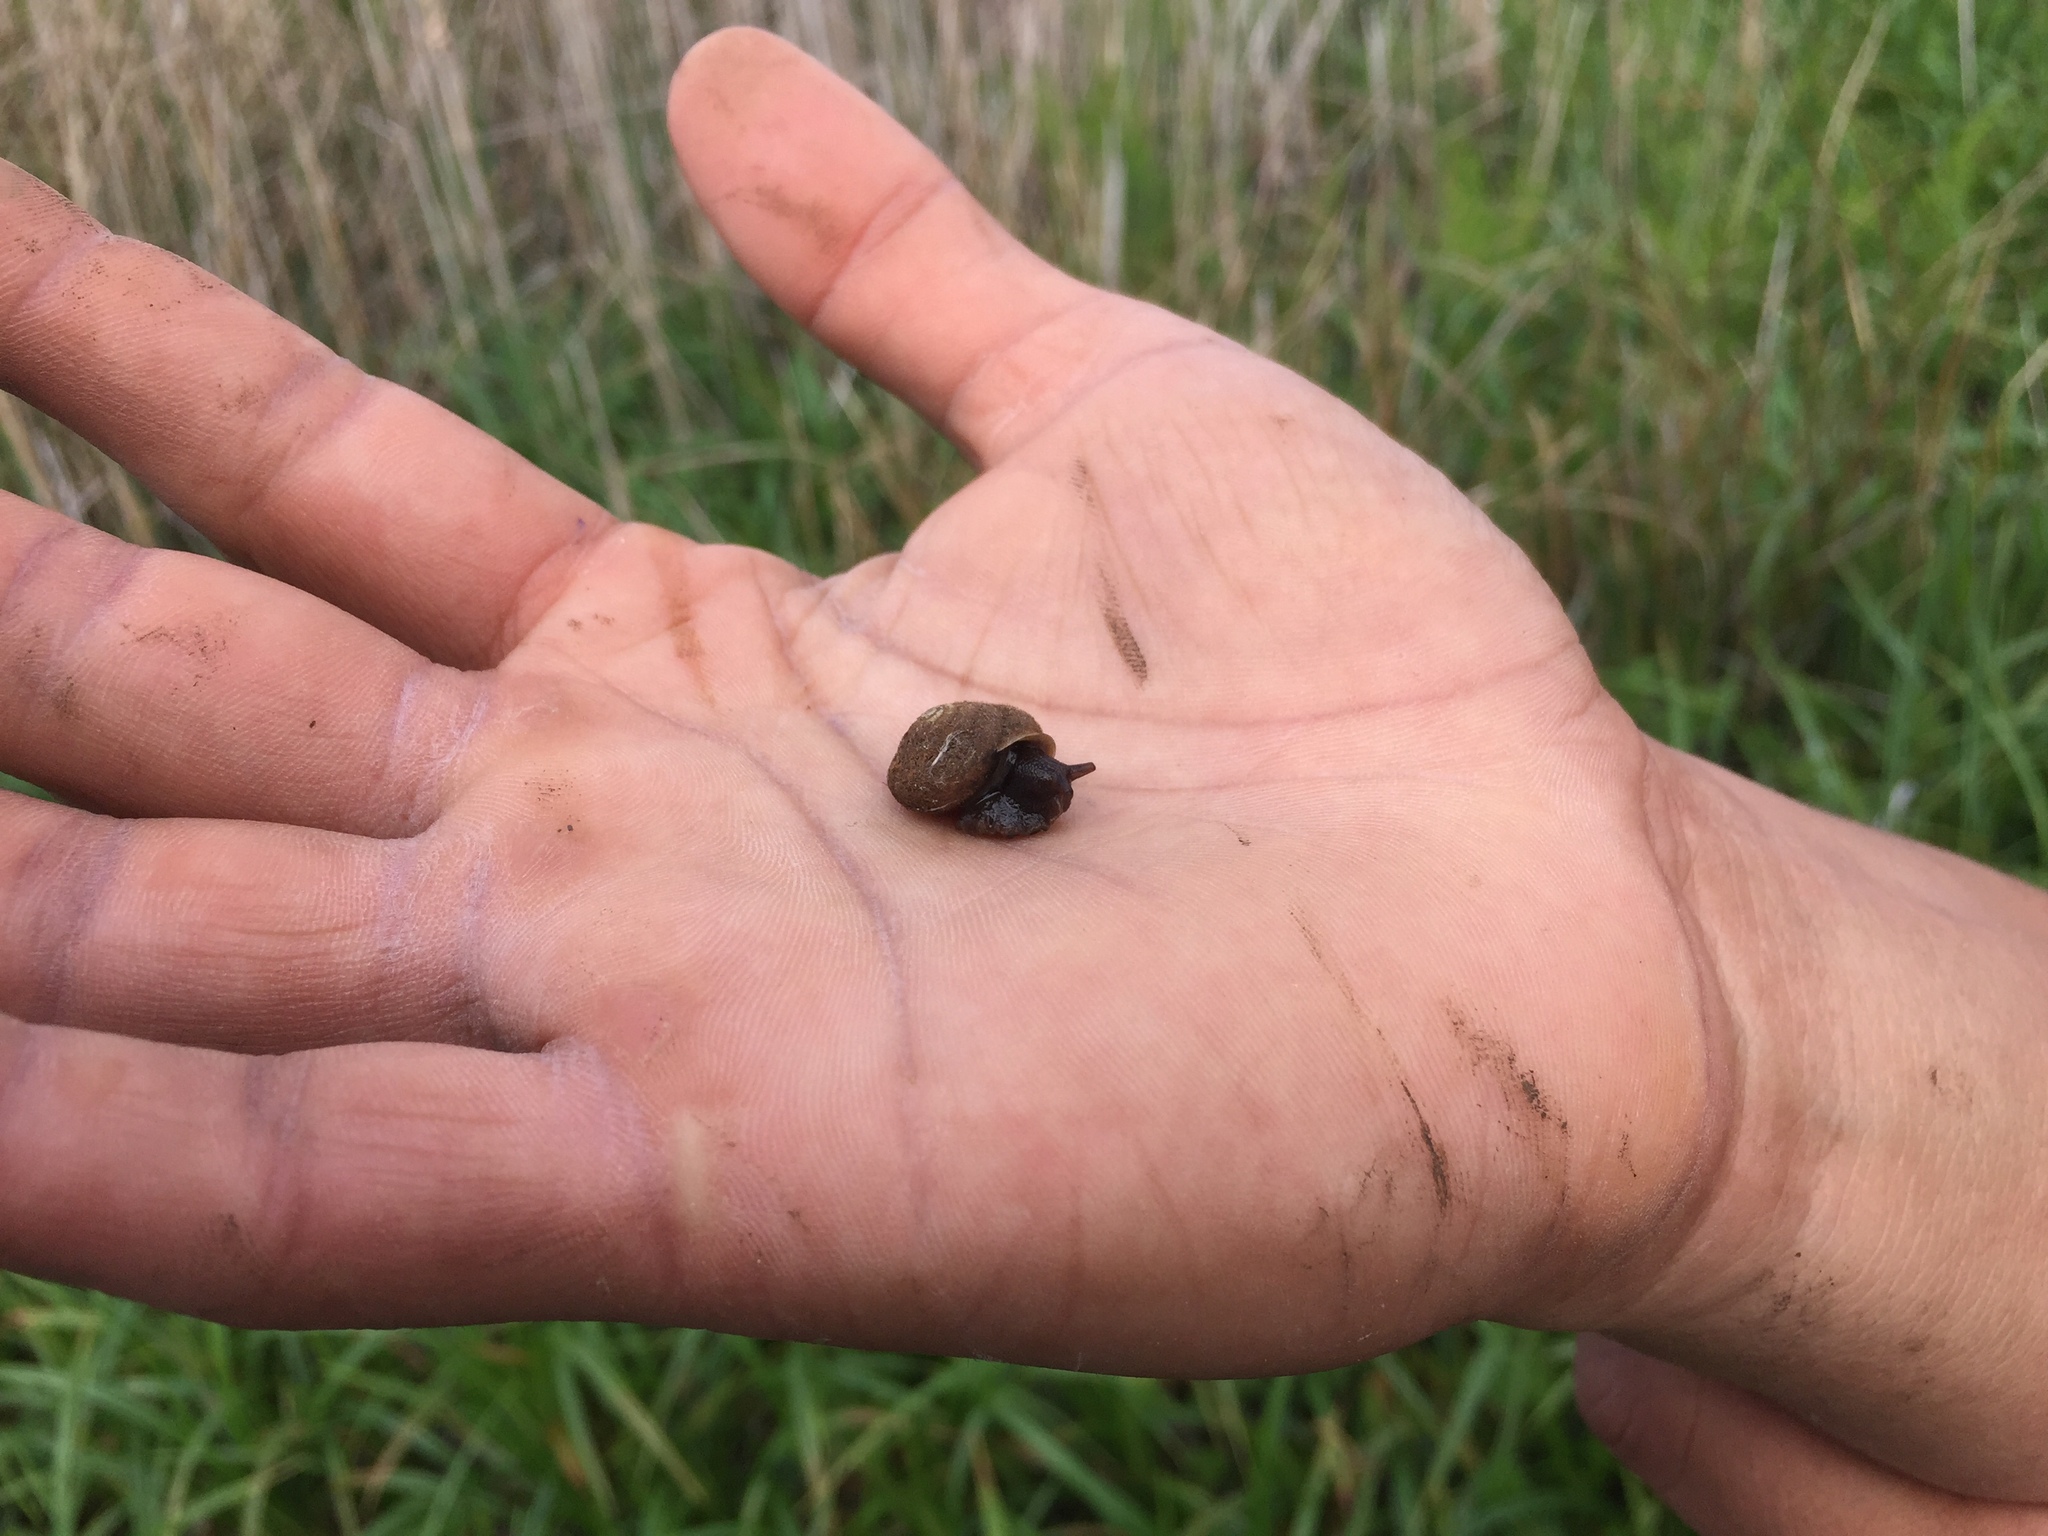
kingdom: Animalia
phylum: Mollusca
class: Gastropoda
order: Stylommatophora
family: Polygyridae
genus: Vespericola
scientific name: Vespericola columbianus
